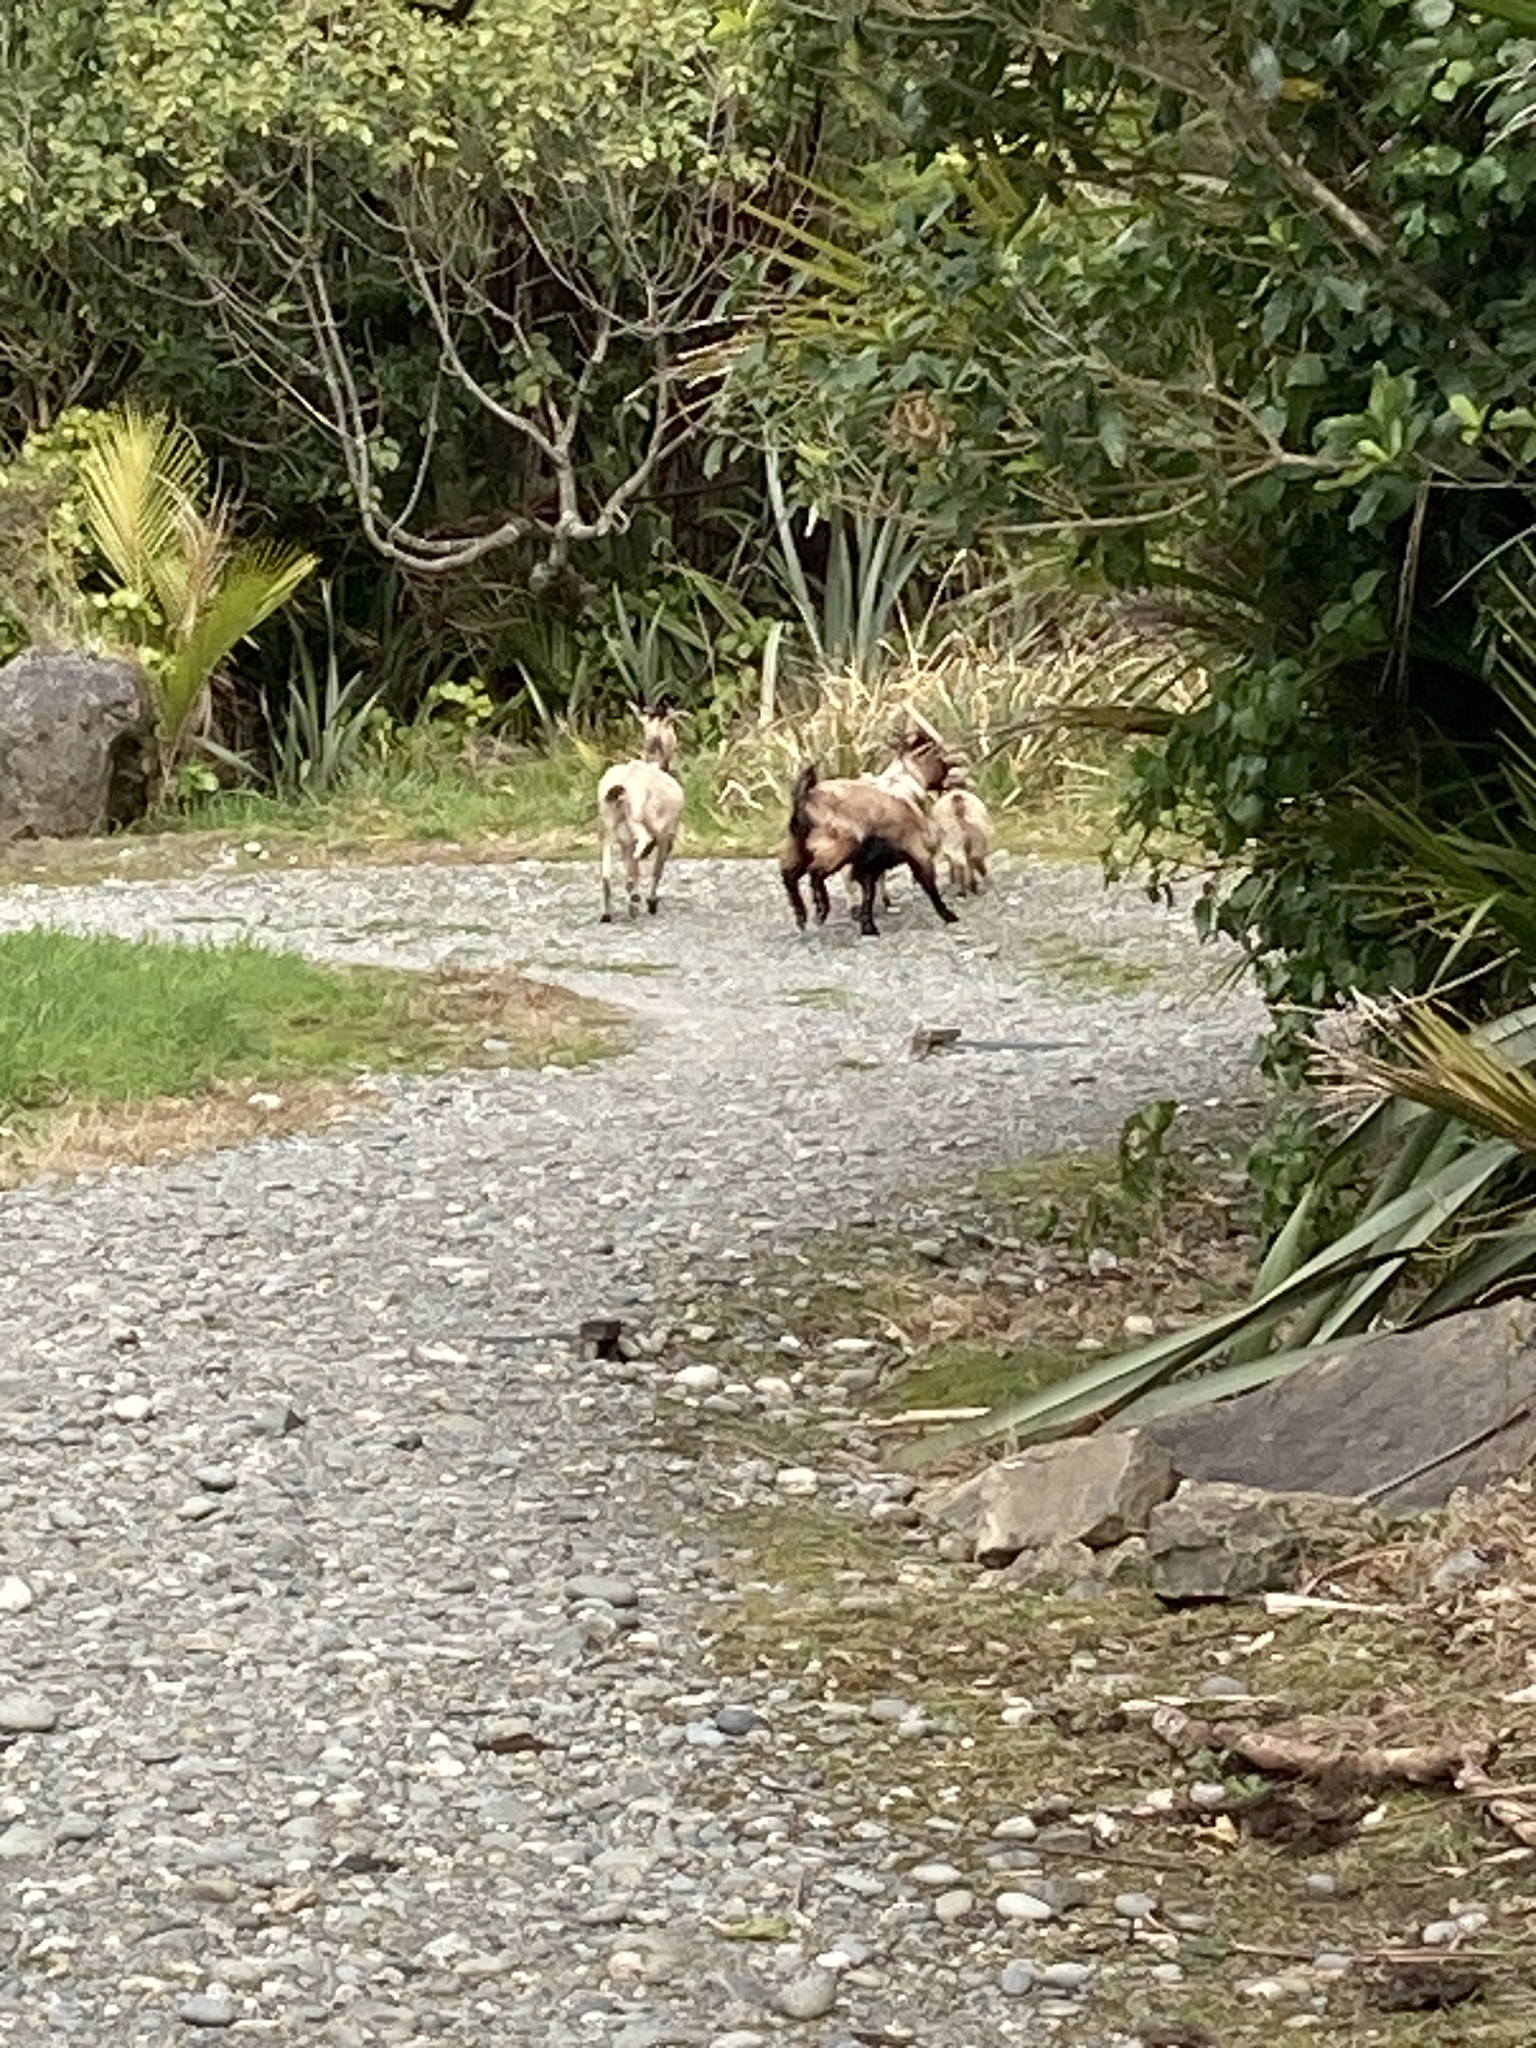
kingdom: Animalia
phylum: Chordata
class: Mammalia
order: Artiodactyla
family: Bovidae
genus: Capra
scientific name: Capra hircus
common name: Domestic goat
